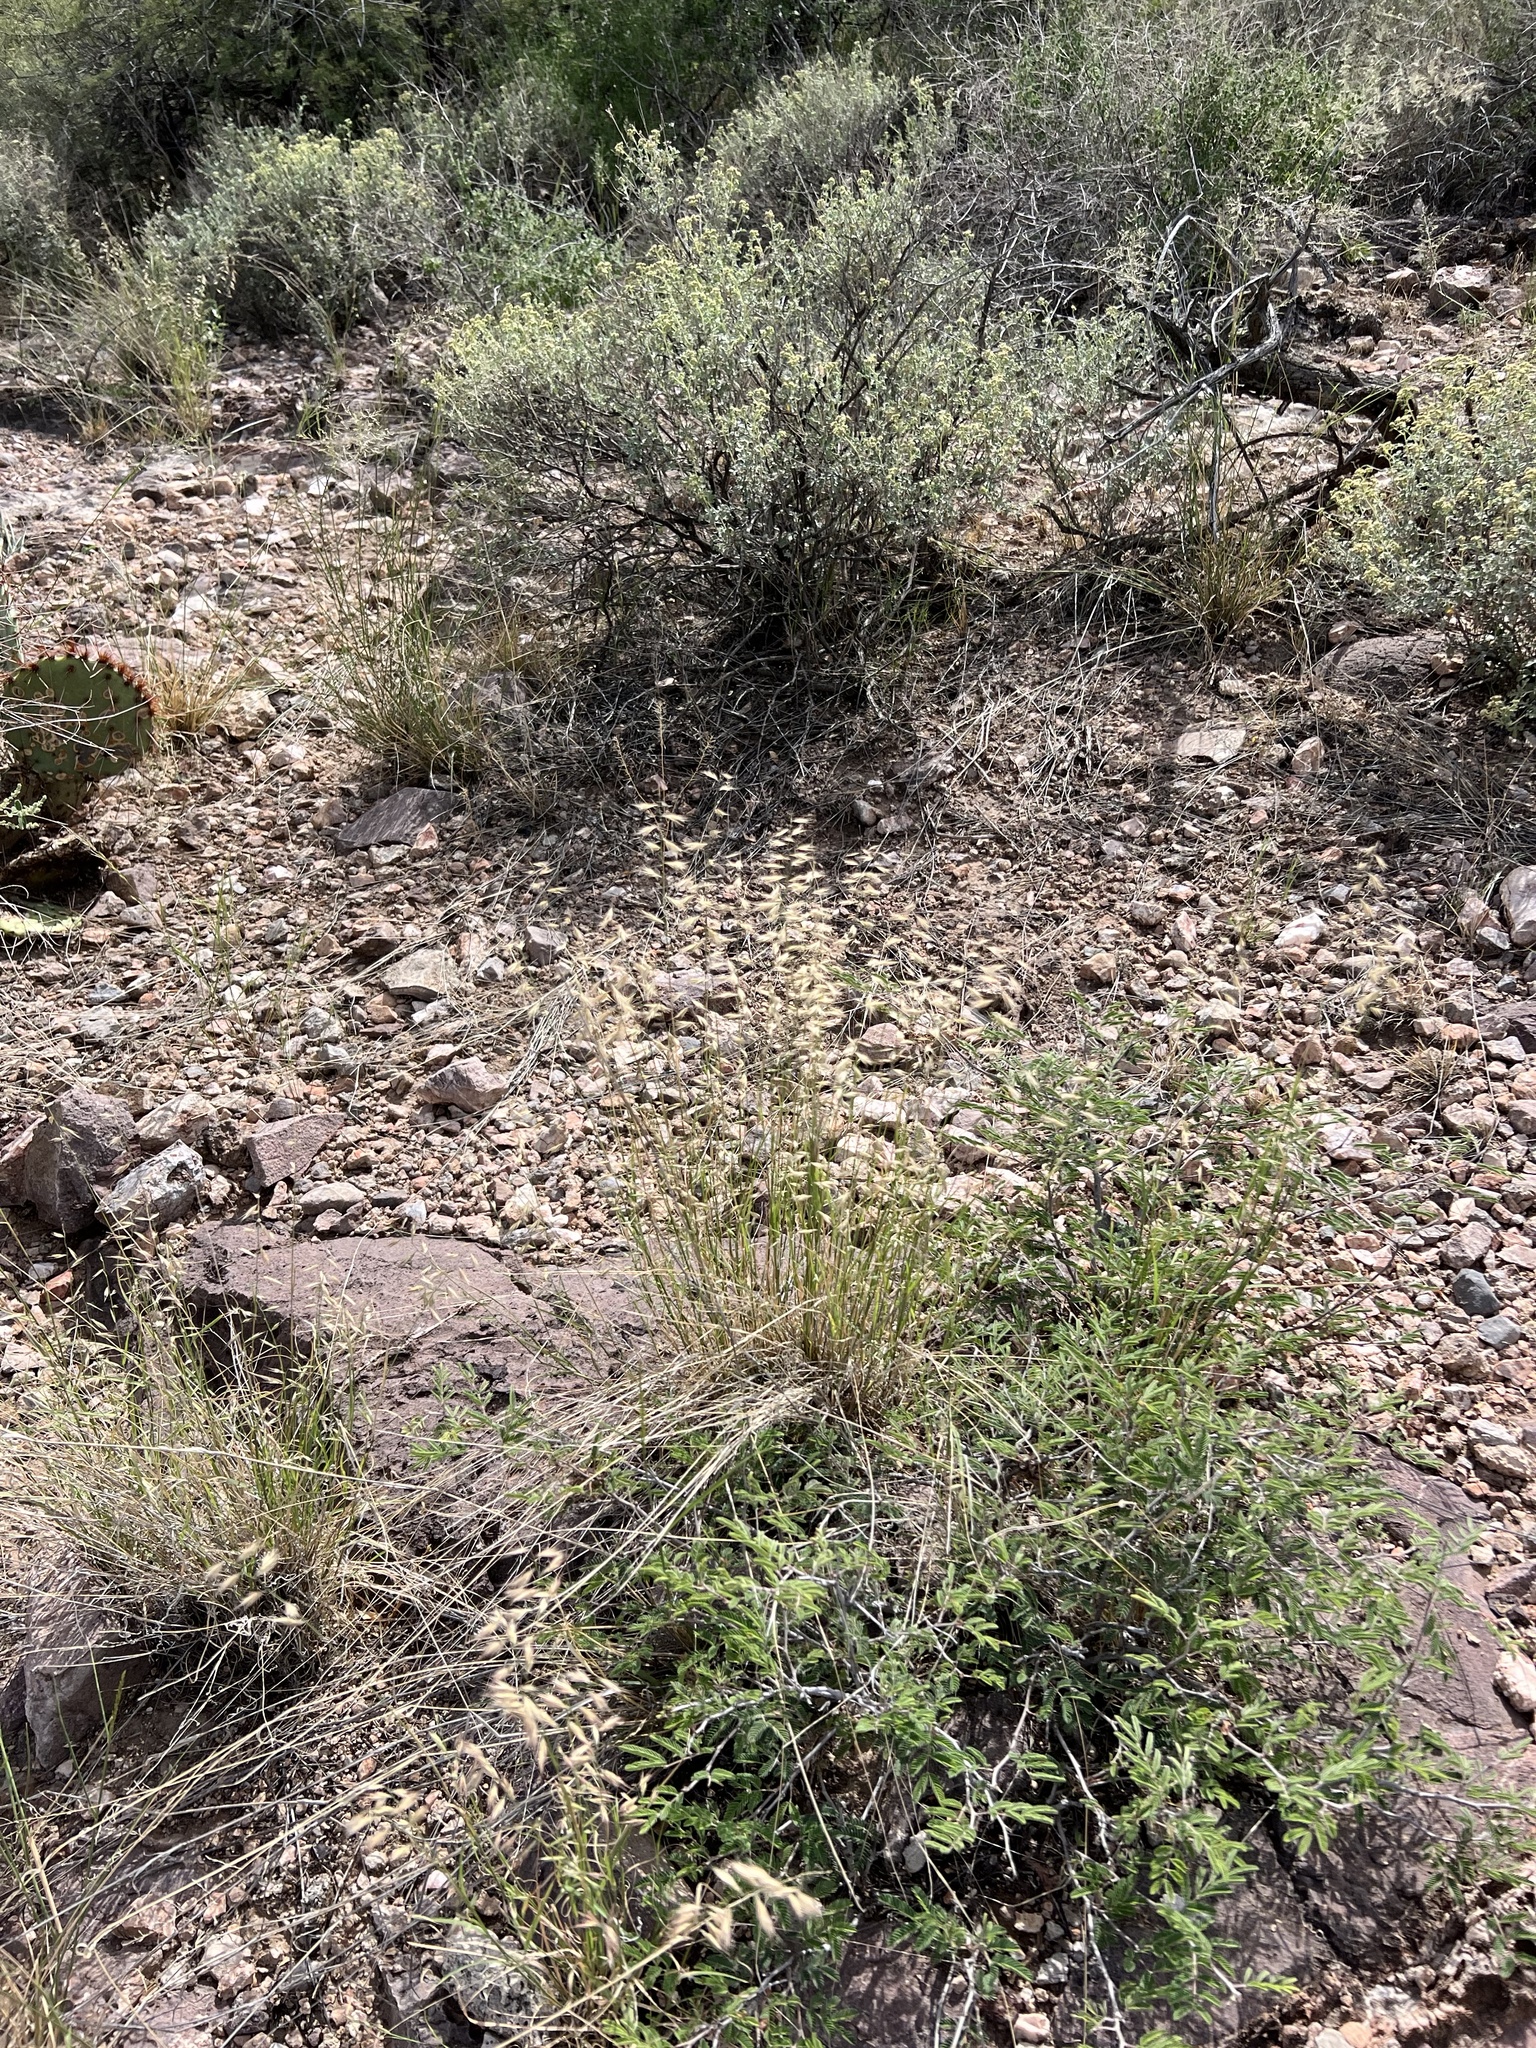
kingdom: Plantae
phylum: Tracheophyta
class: Liliopsida
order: Poales
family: Poaceae
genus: Bouteloua
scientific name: Bouteloua repens
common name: Slender grama
